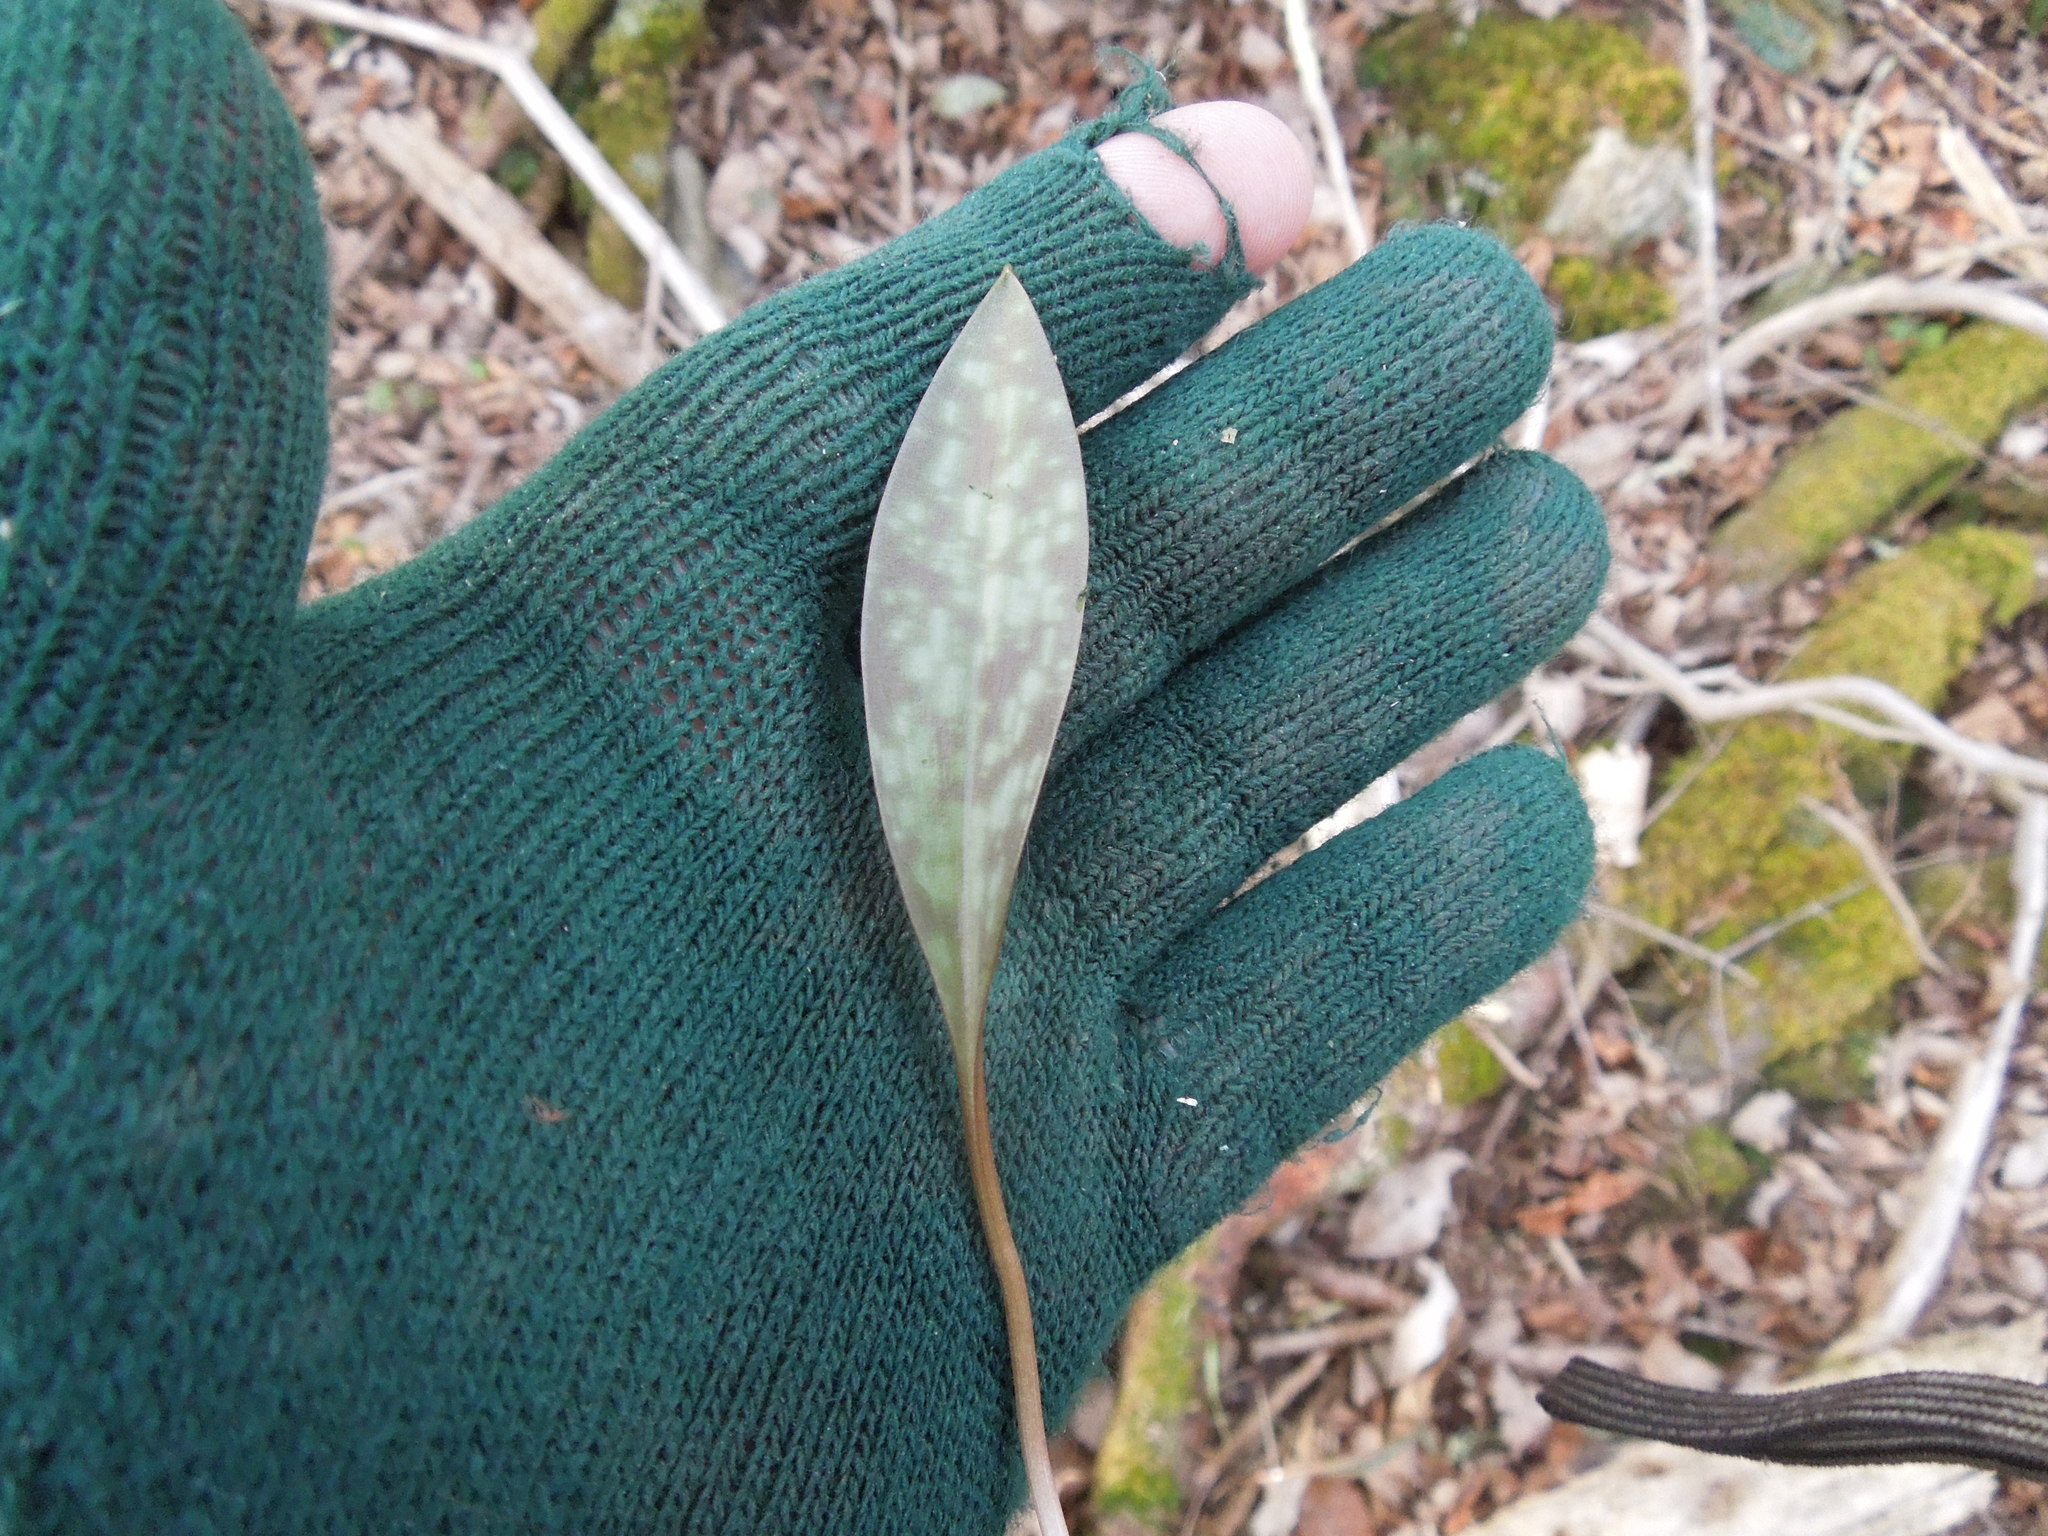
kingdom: Plantae
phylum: Tracheophyta
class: Liliopsida
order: Liliales
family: Liliaceae
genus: Erythronium
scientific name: Erythronium americanum
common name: Yellow adder's-tongue
